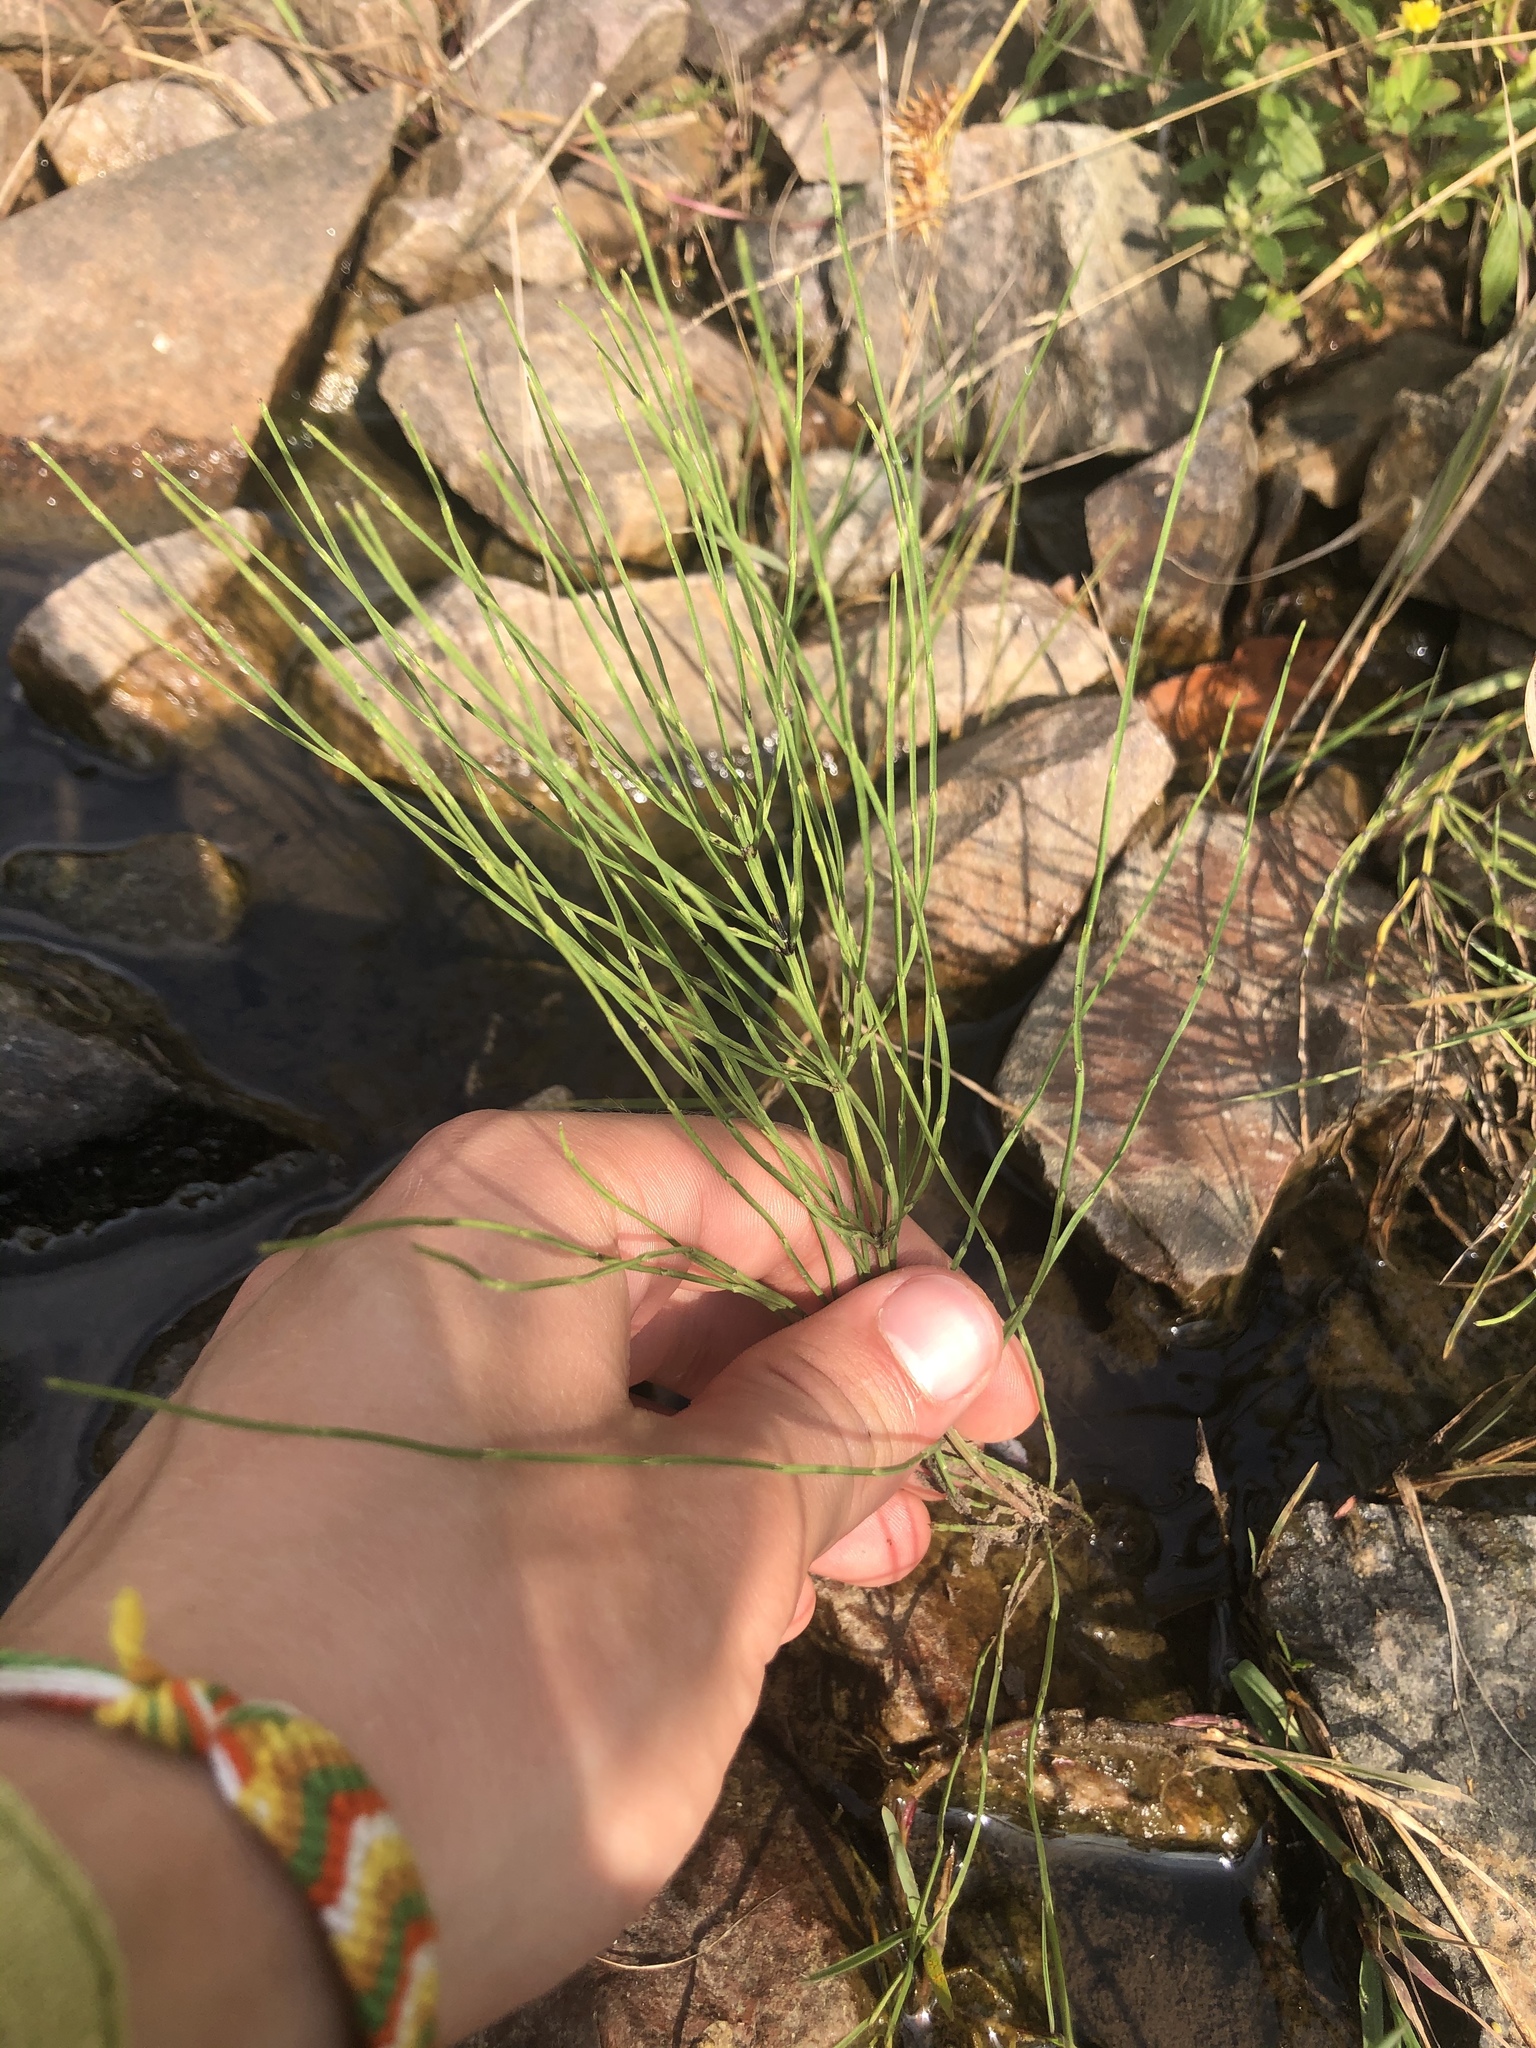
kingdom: Plantae
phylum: Tracheophyta
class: Polypodiopsida
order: Equisetales
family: Equisetaceae
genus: Equisetum
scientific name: Equisetum arvense
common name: Field horsetail
